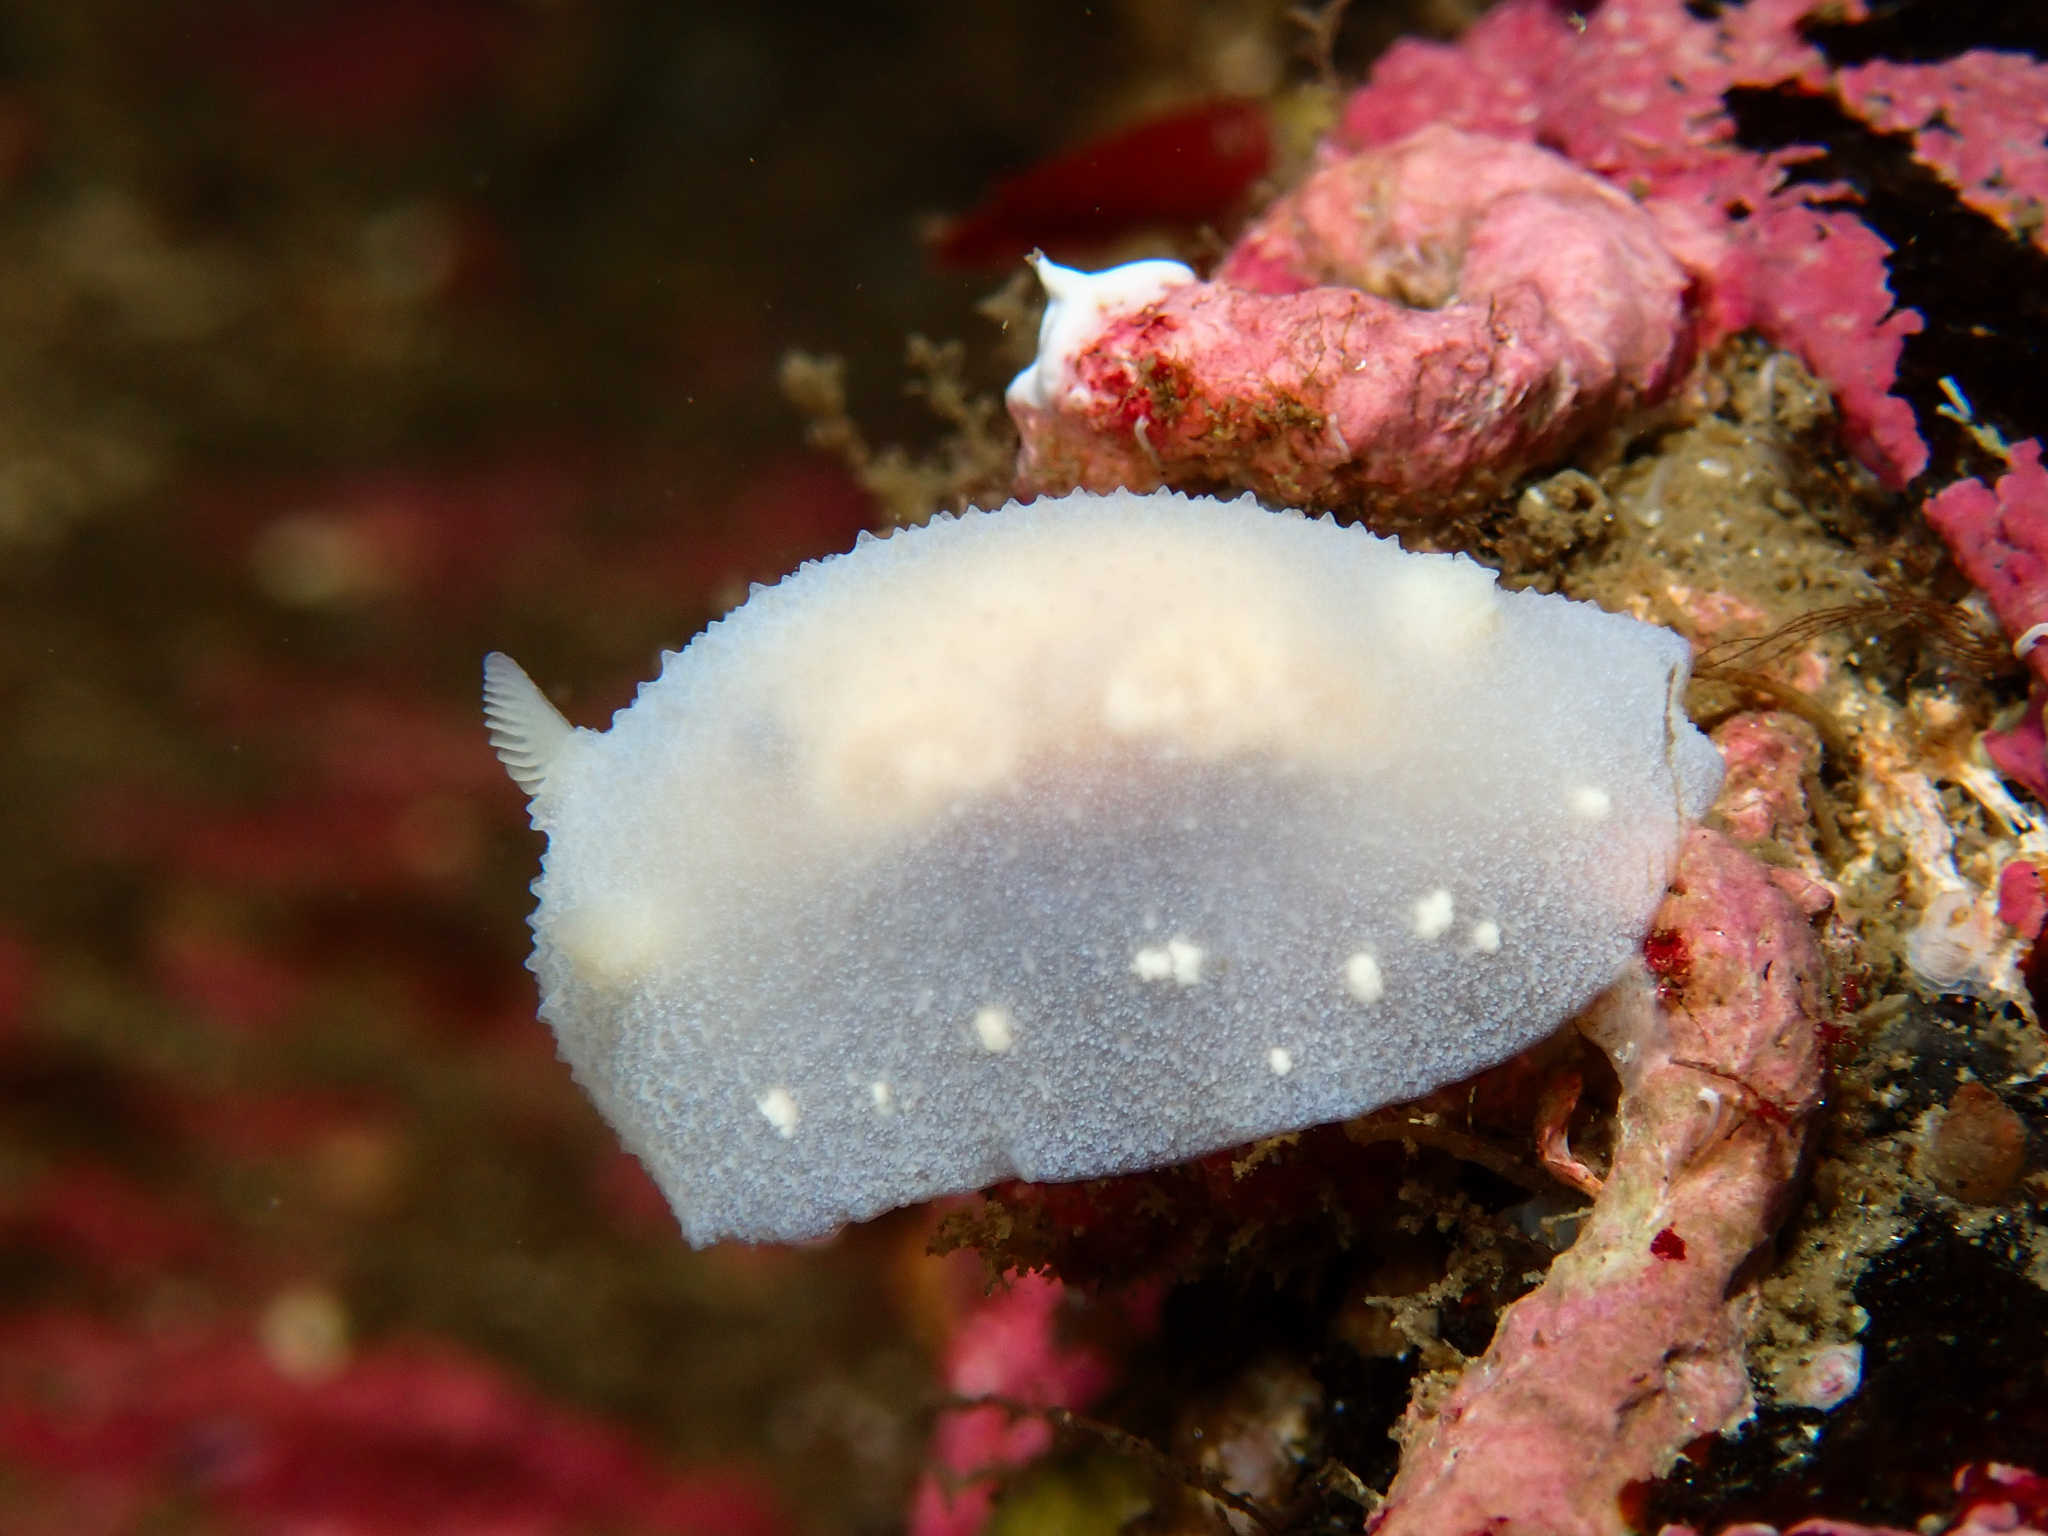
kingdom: Animalia
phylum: Mollusca
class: Gastropoda
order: Nudibranchia
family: Cadlinidae
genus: Cadlina
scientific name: Cadlina laevis
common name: White atlantic cadlina
